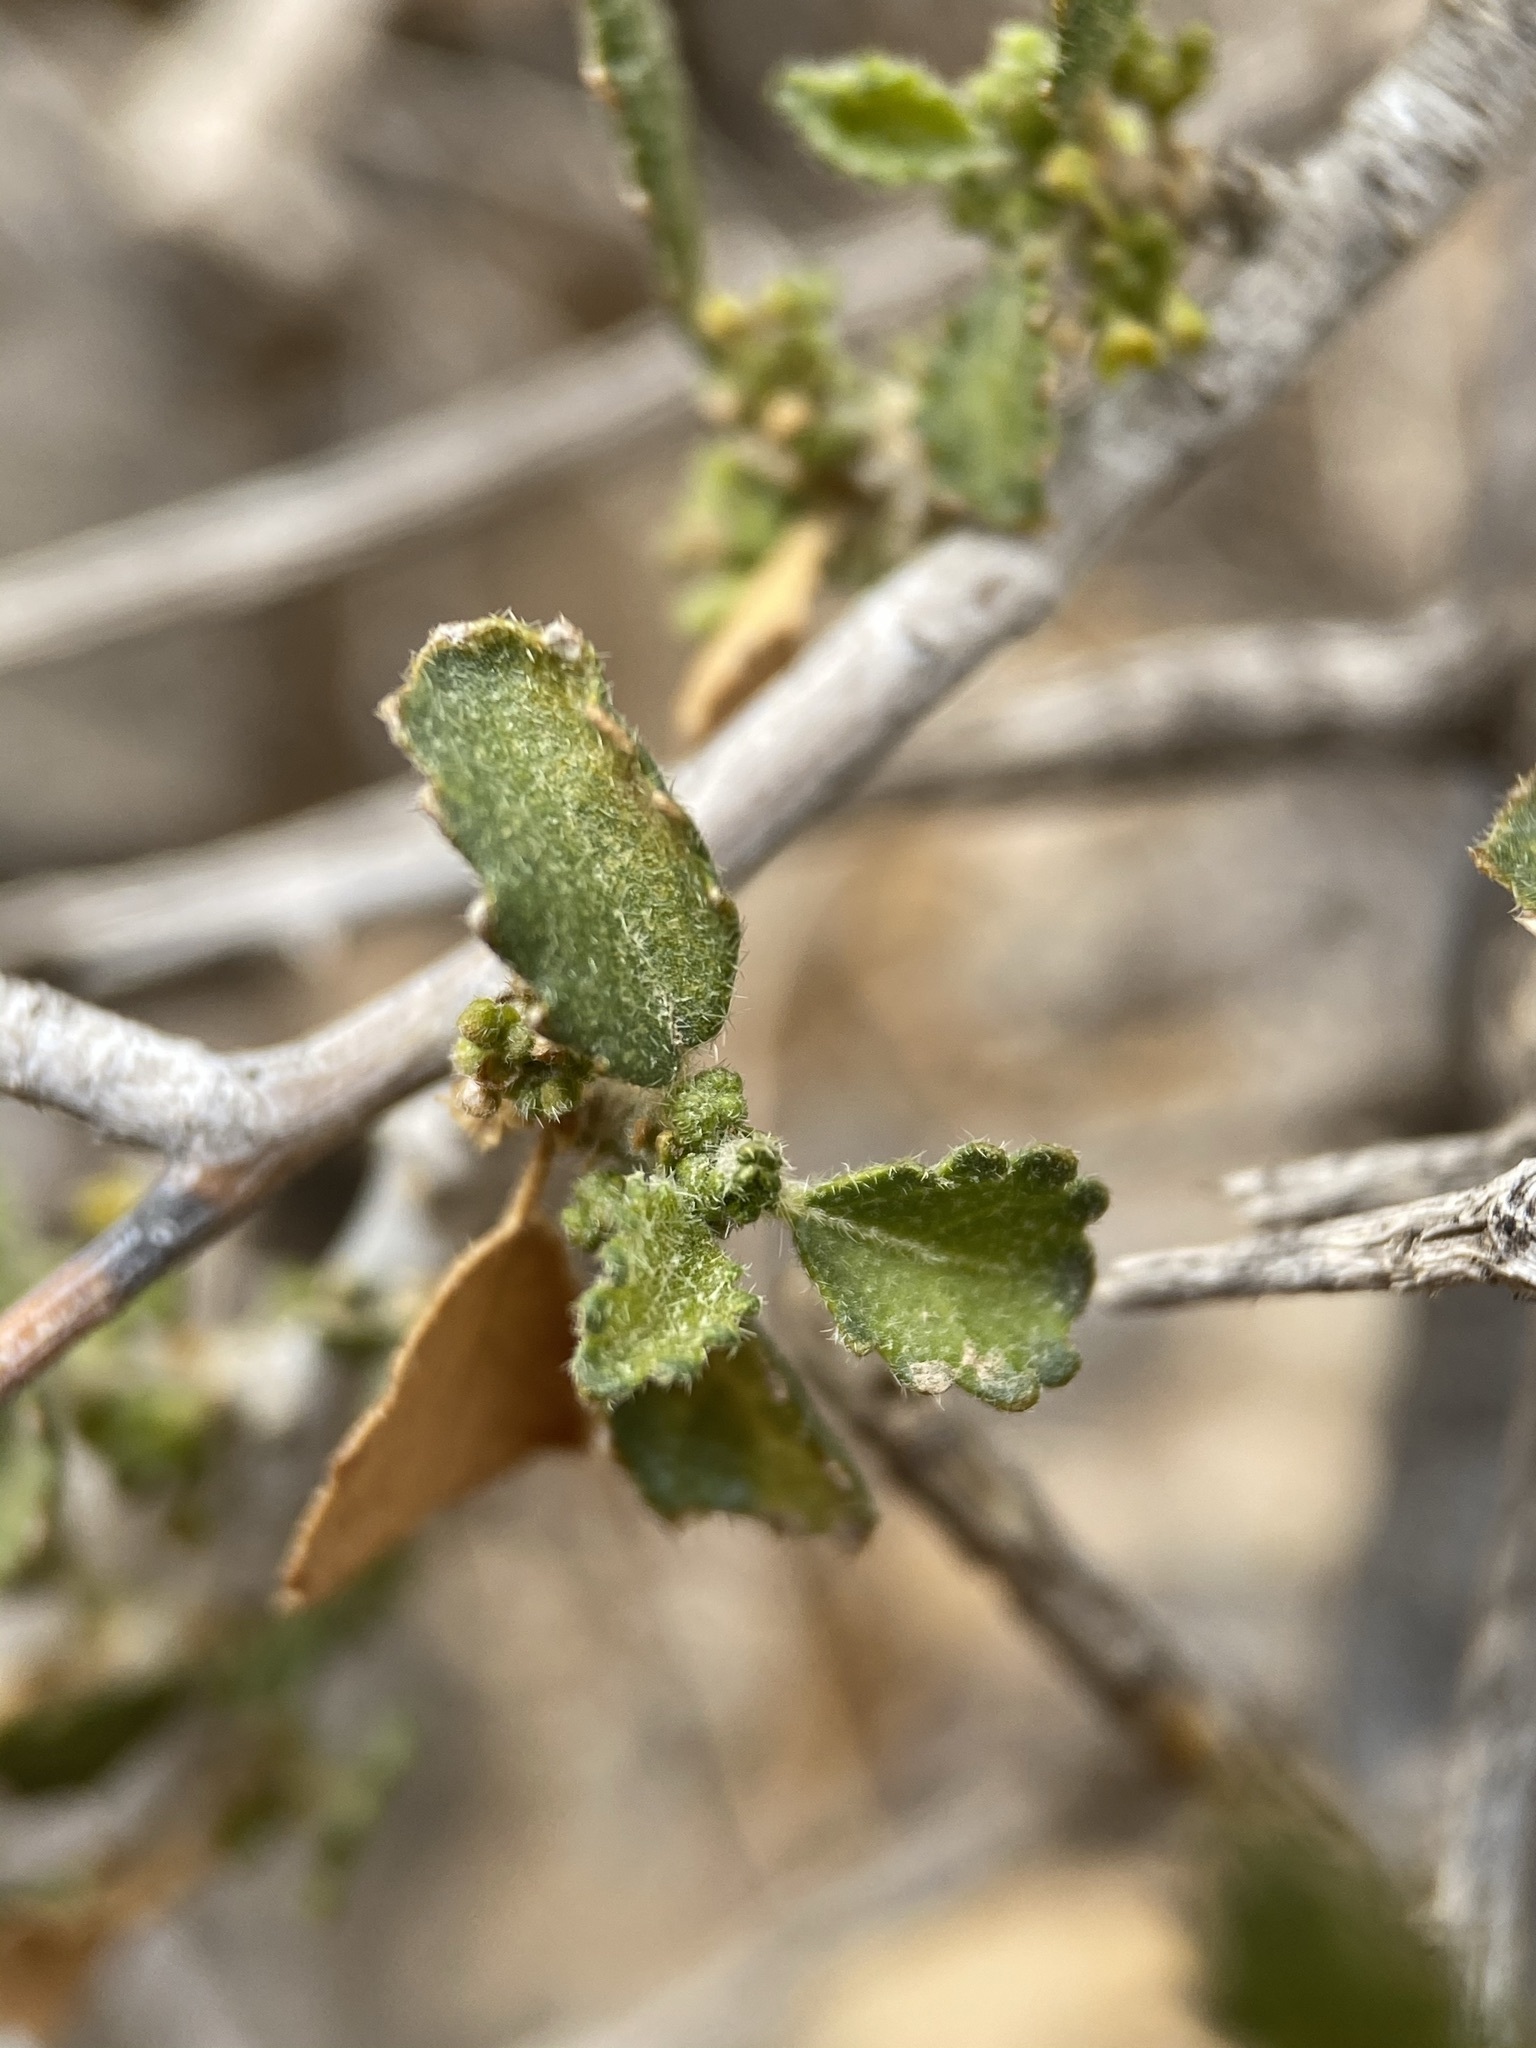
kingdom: Plantae
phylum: Tracheophyta
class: Magnoliopsida
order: Malpighiales
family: Euphorbiaceae
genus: Bernardia
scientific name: Bernardia obovata
